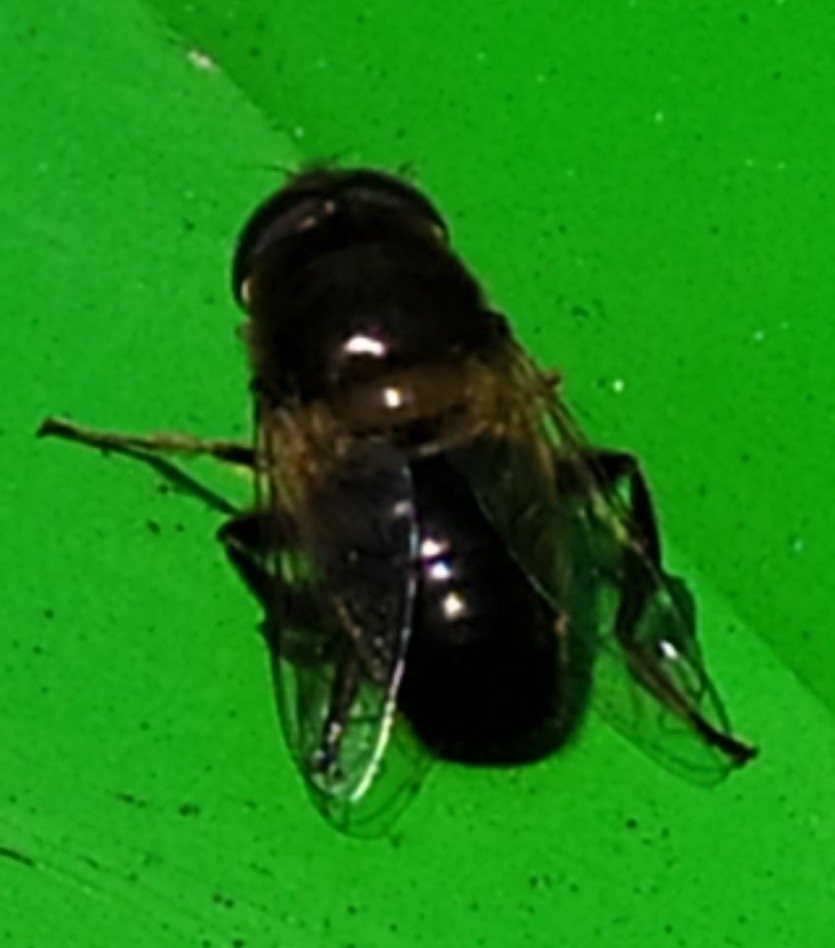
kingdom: Animalia
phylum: Arthropoda
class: Insecta
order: Diptera
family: Syrphidae
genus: Eristalis
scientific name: Eristalis tenax
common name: Drone fly
